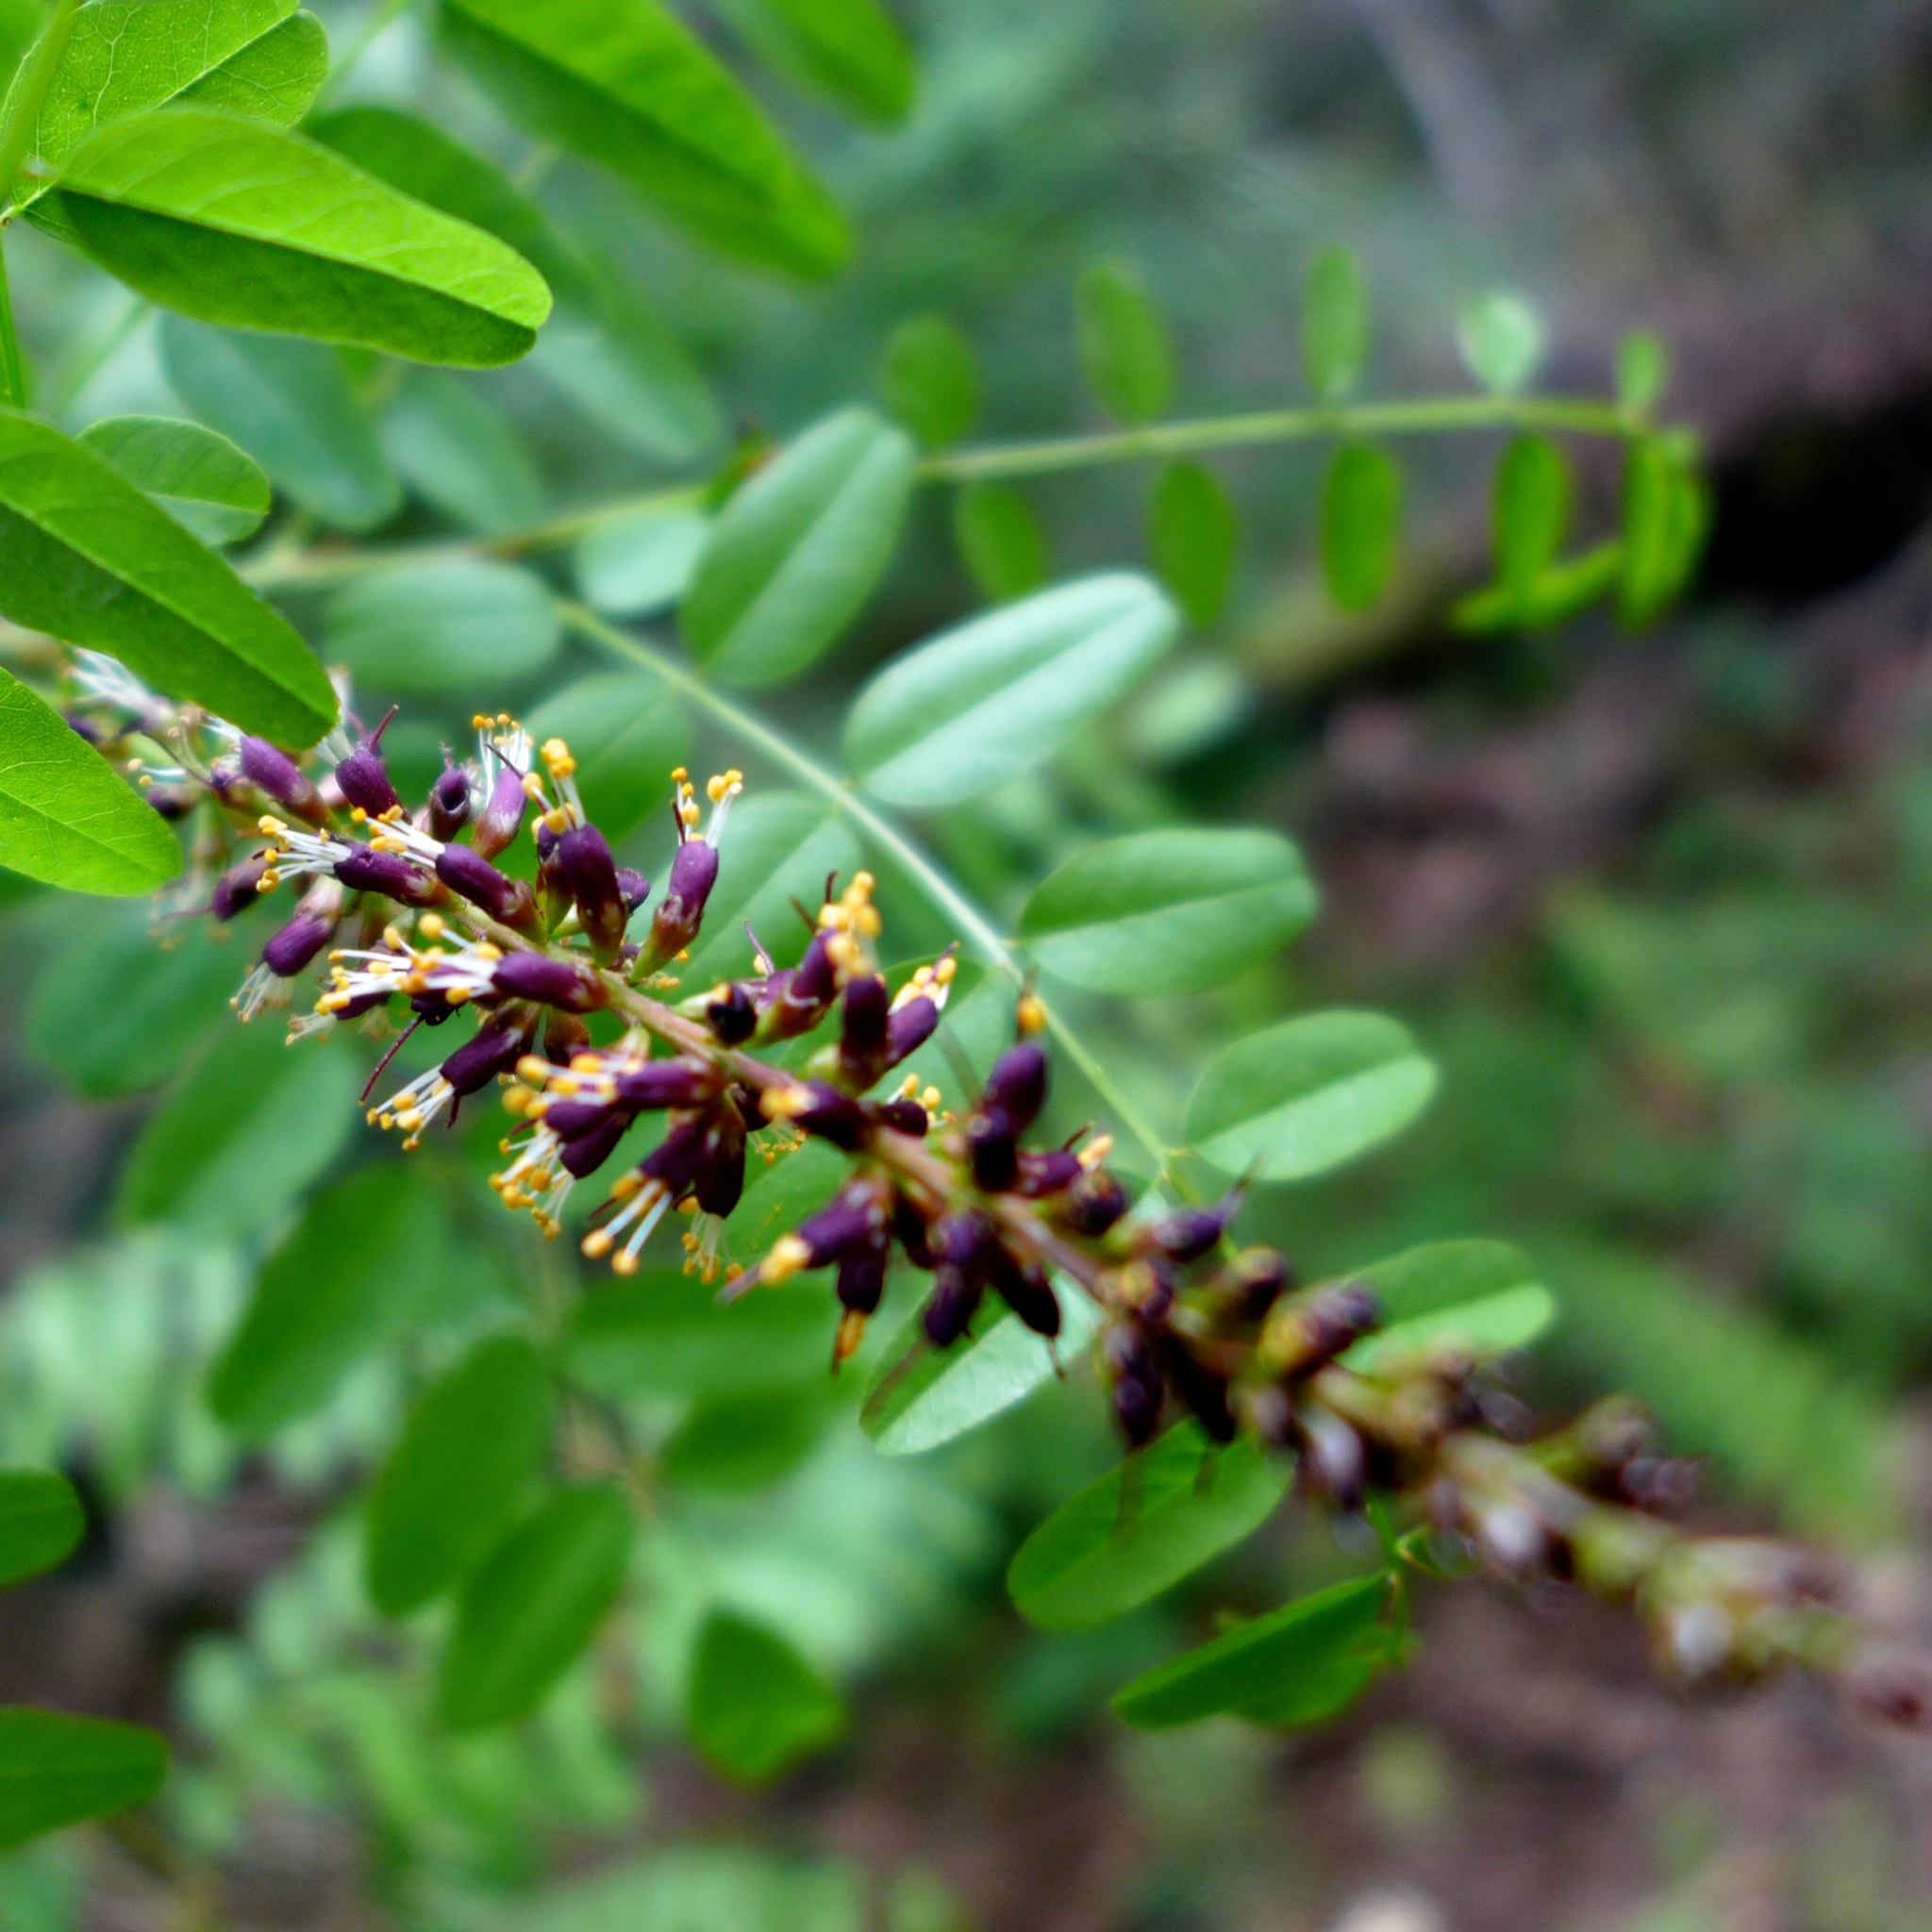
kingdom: Plantae
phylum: Tracheophyta
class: Magnoliopsida
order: Fabales
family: Fabaceae
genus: Amorpha
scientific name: Amorpha californica
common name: California indigobush
